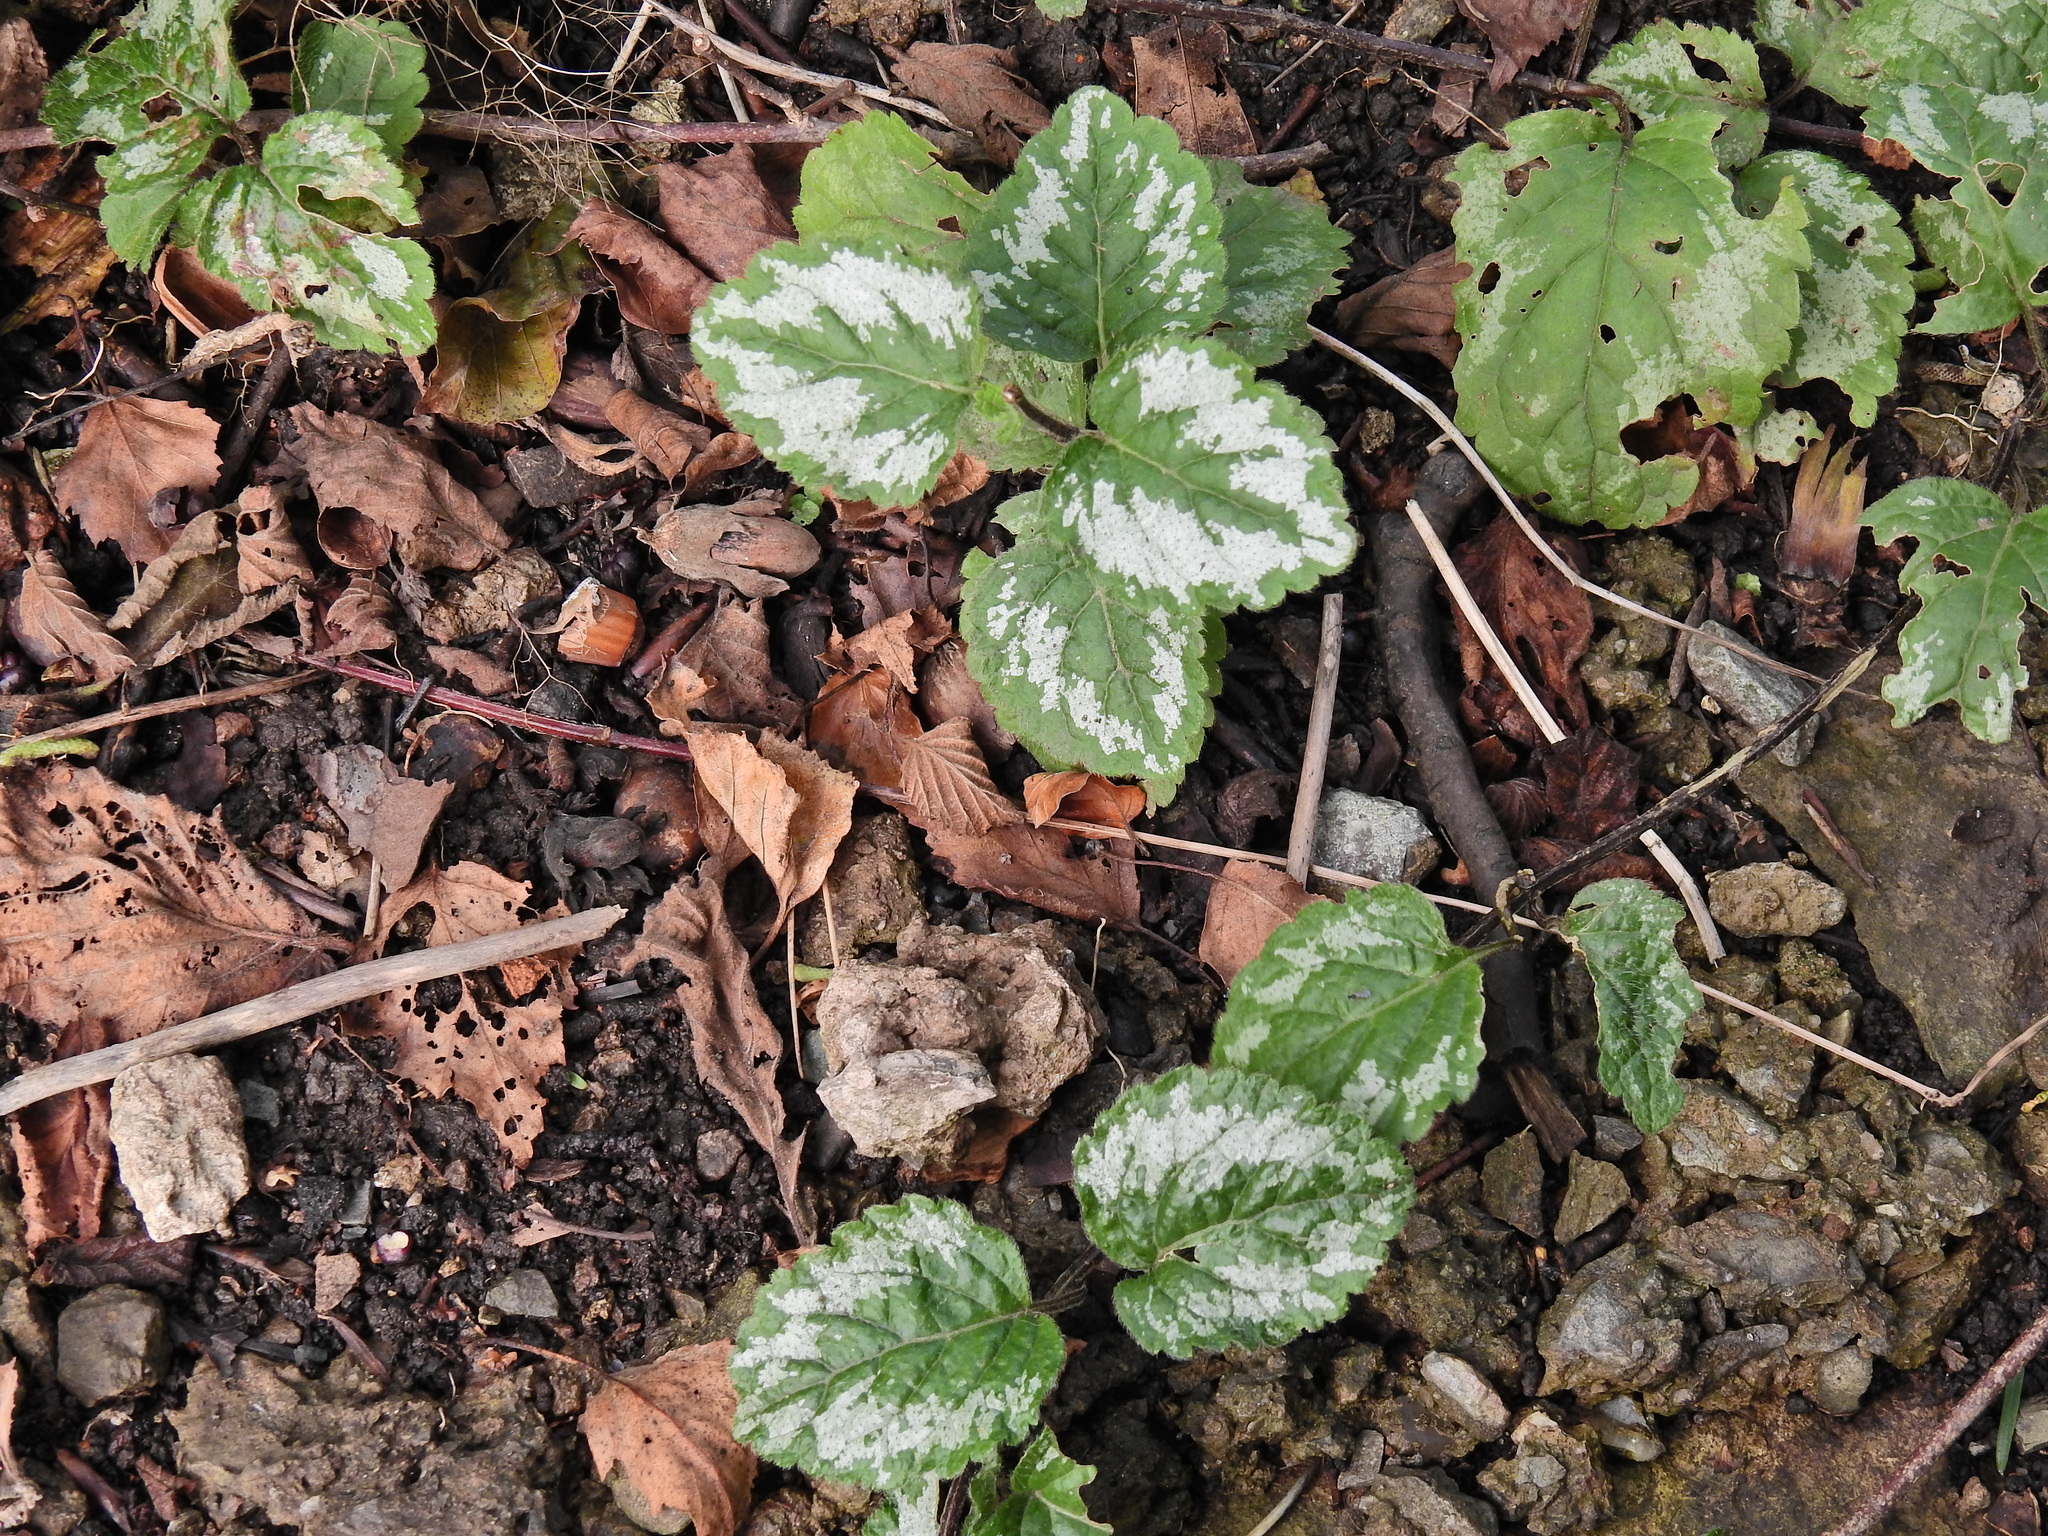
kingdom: Plantae
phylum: Tracheophyta
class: Magnoliopsida
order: Lamiales
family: Lamiaceae
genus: Lamium
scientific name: Lamium galeobdolon
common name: Yellow archangel
